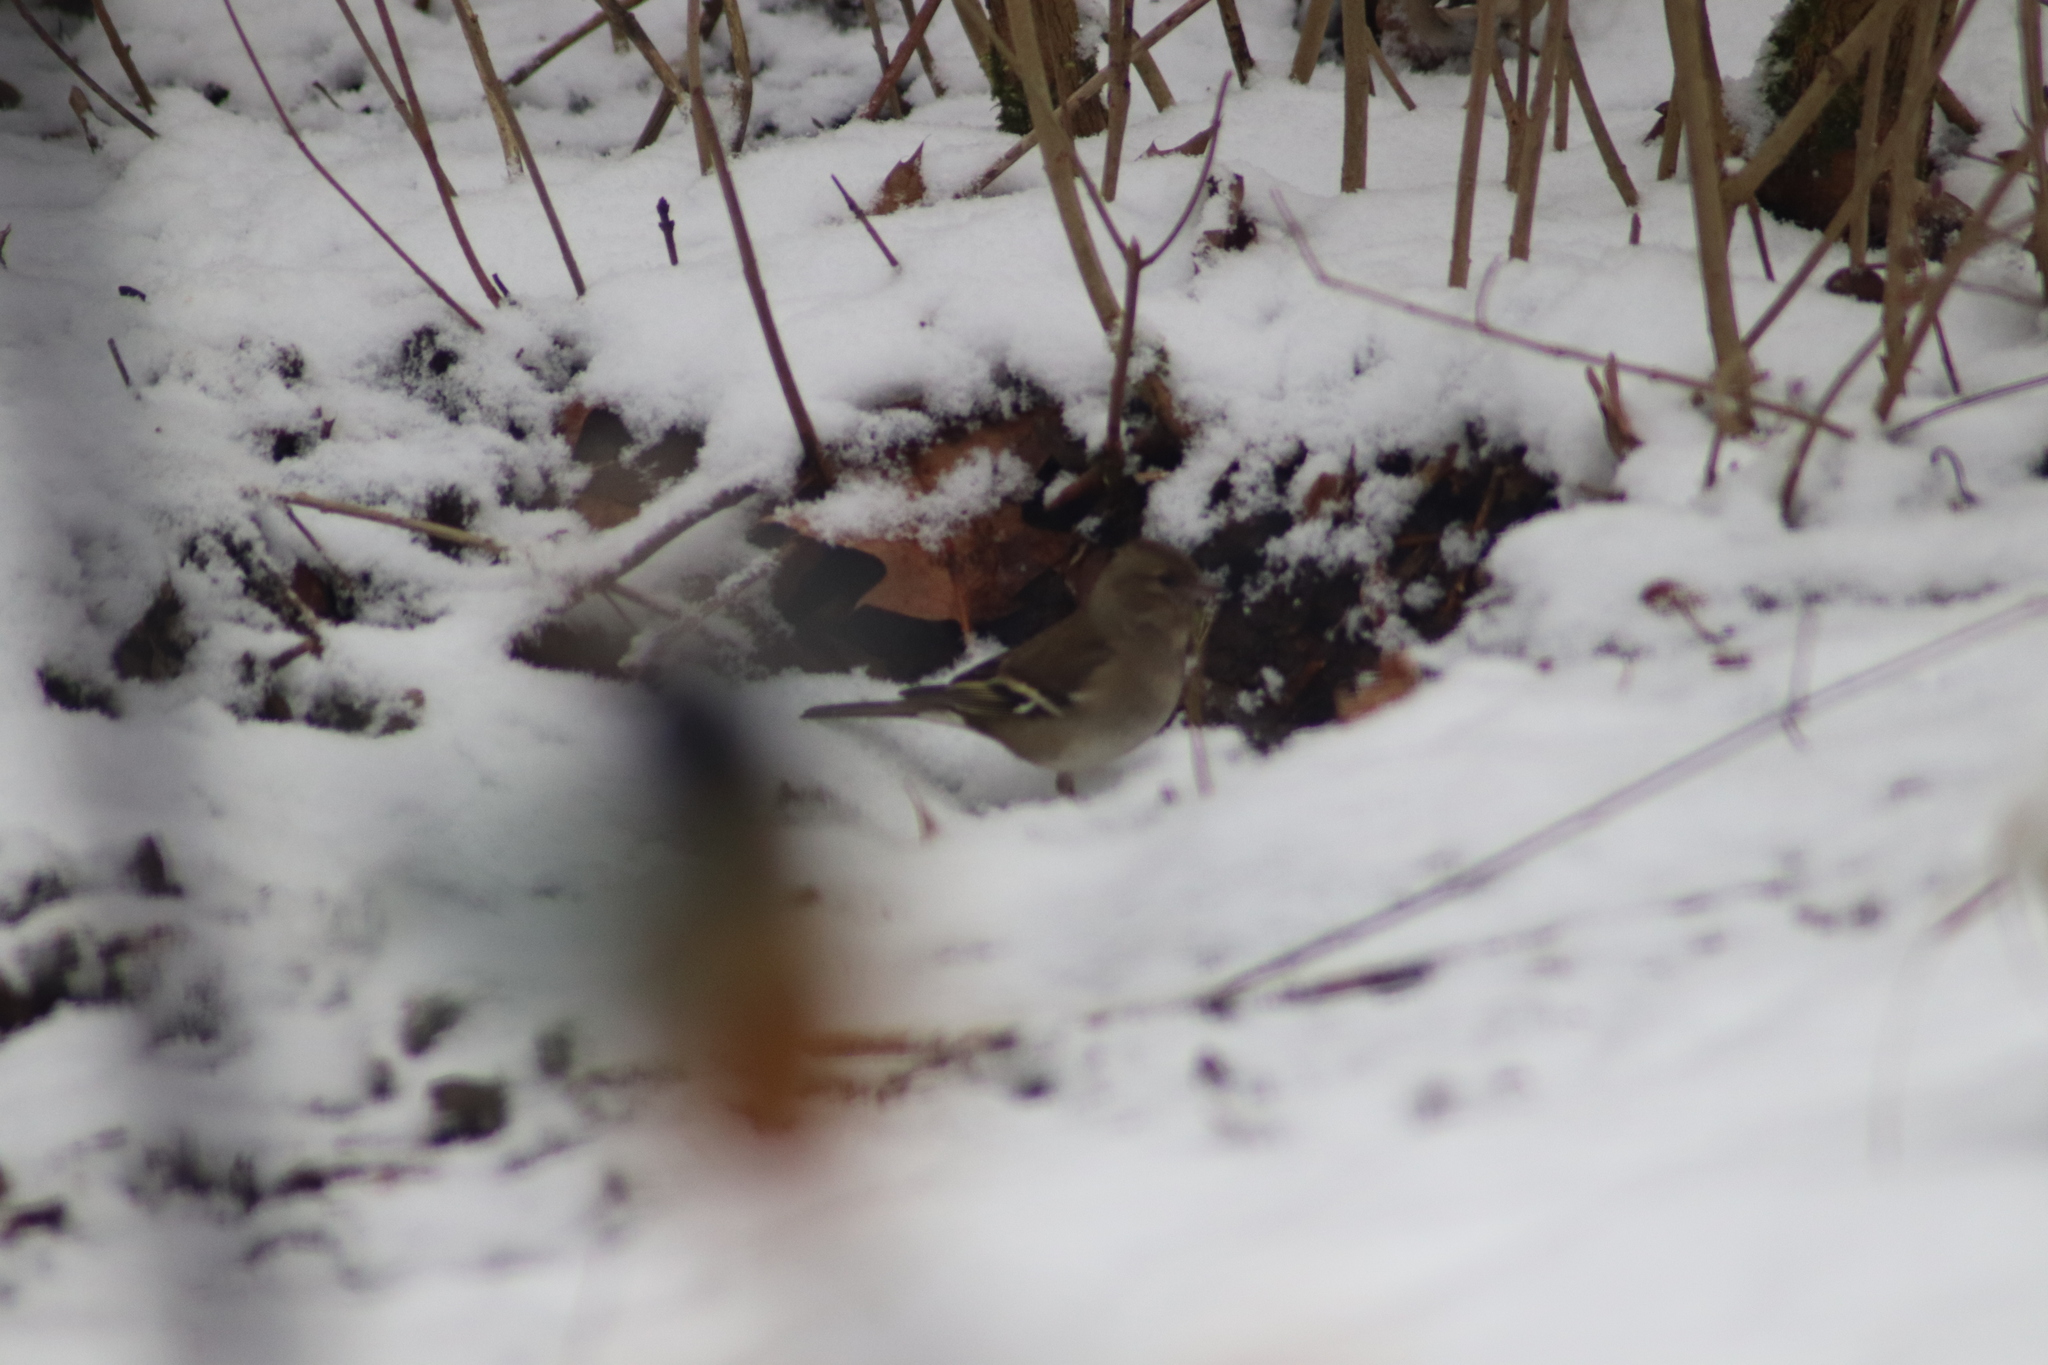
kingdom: Animalia
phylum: Chordata
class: Aves
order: Passeriformes
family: Fringillidae
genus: Fringilla
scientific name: Fringilla coelebs
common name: Common chaffinch
